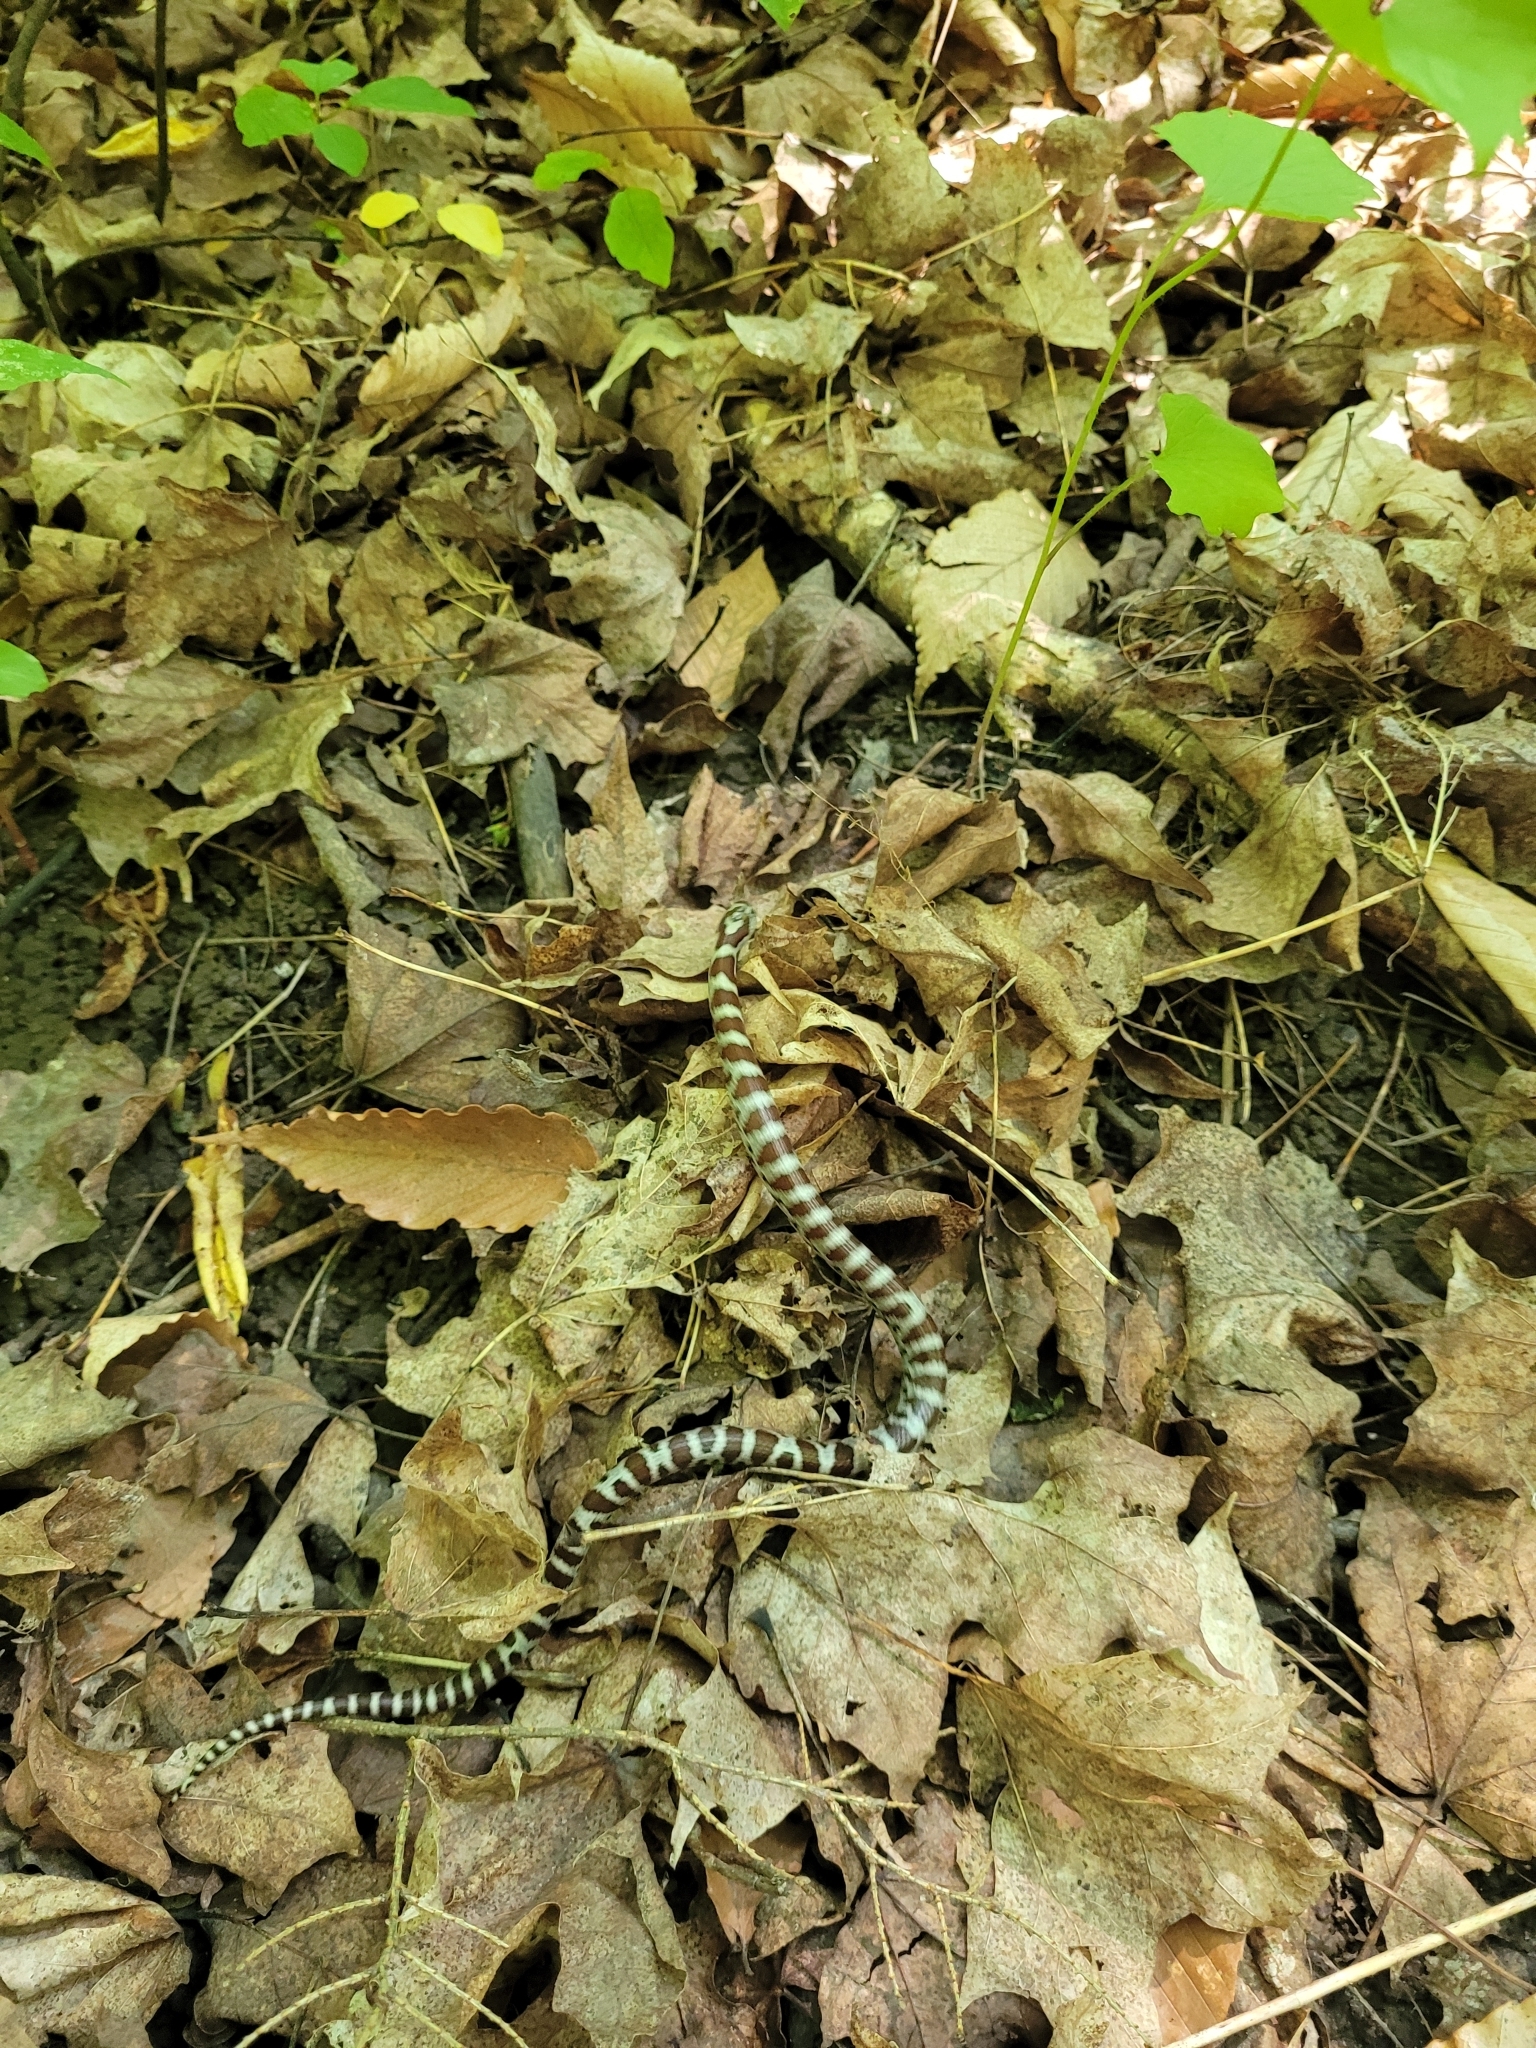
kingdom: Animalia
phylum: Chordata
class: Squamata
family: Colubridae
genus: Lampropeltis
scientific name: Lampropeltis triangulum
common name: Eastern milksnake
